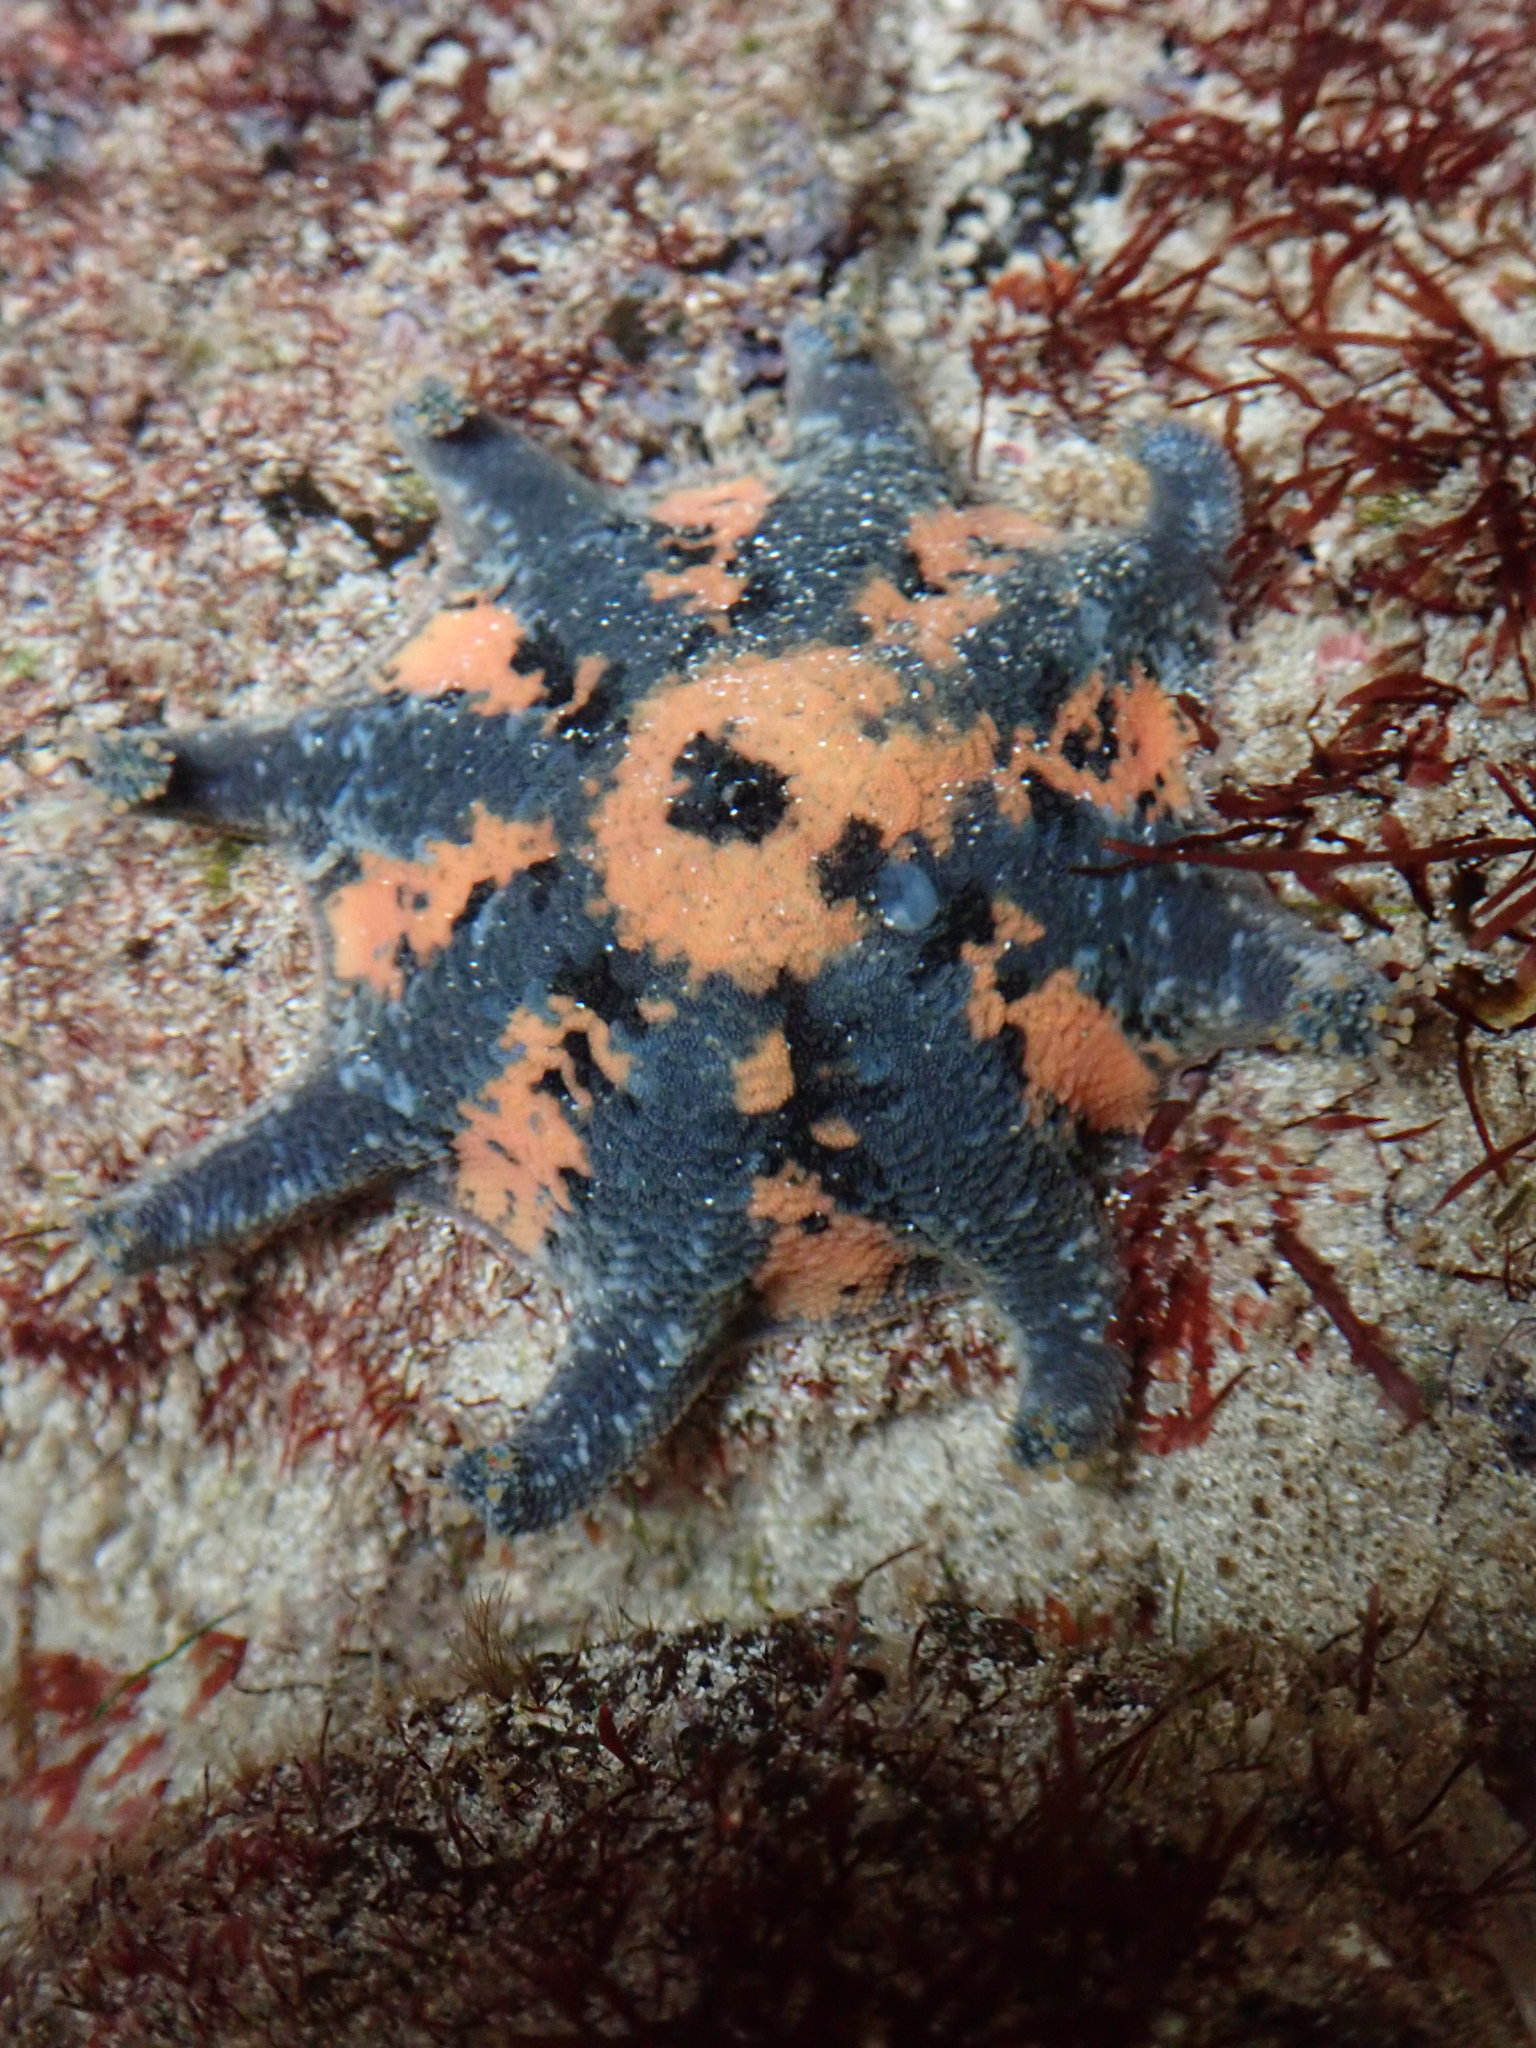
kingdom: Animalia
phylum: Echinodermata
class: Asteroidea
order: Valvatida
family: Asterinidae
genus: Meridiastra
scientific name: Meridiastra calcar
